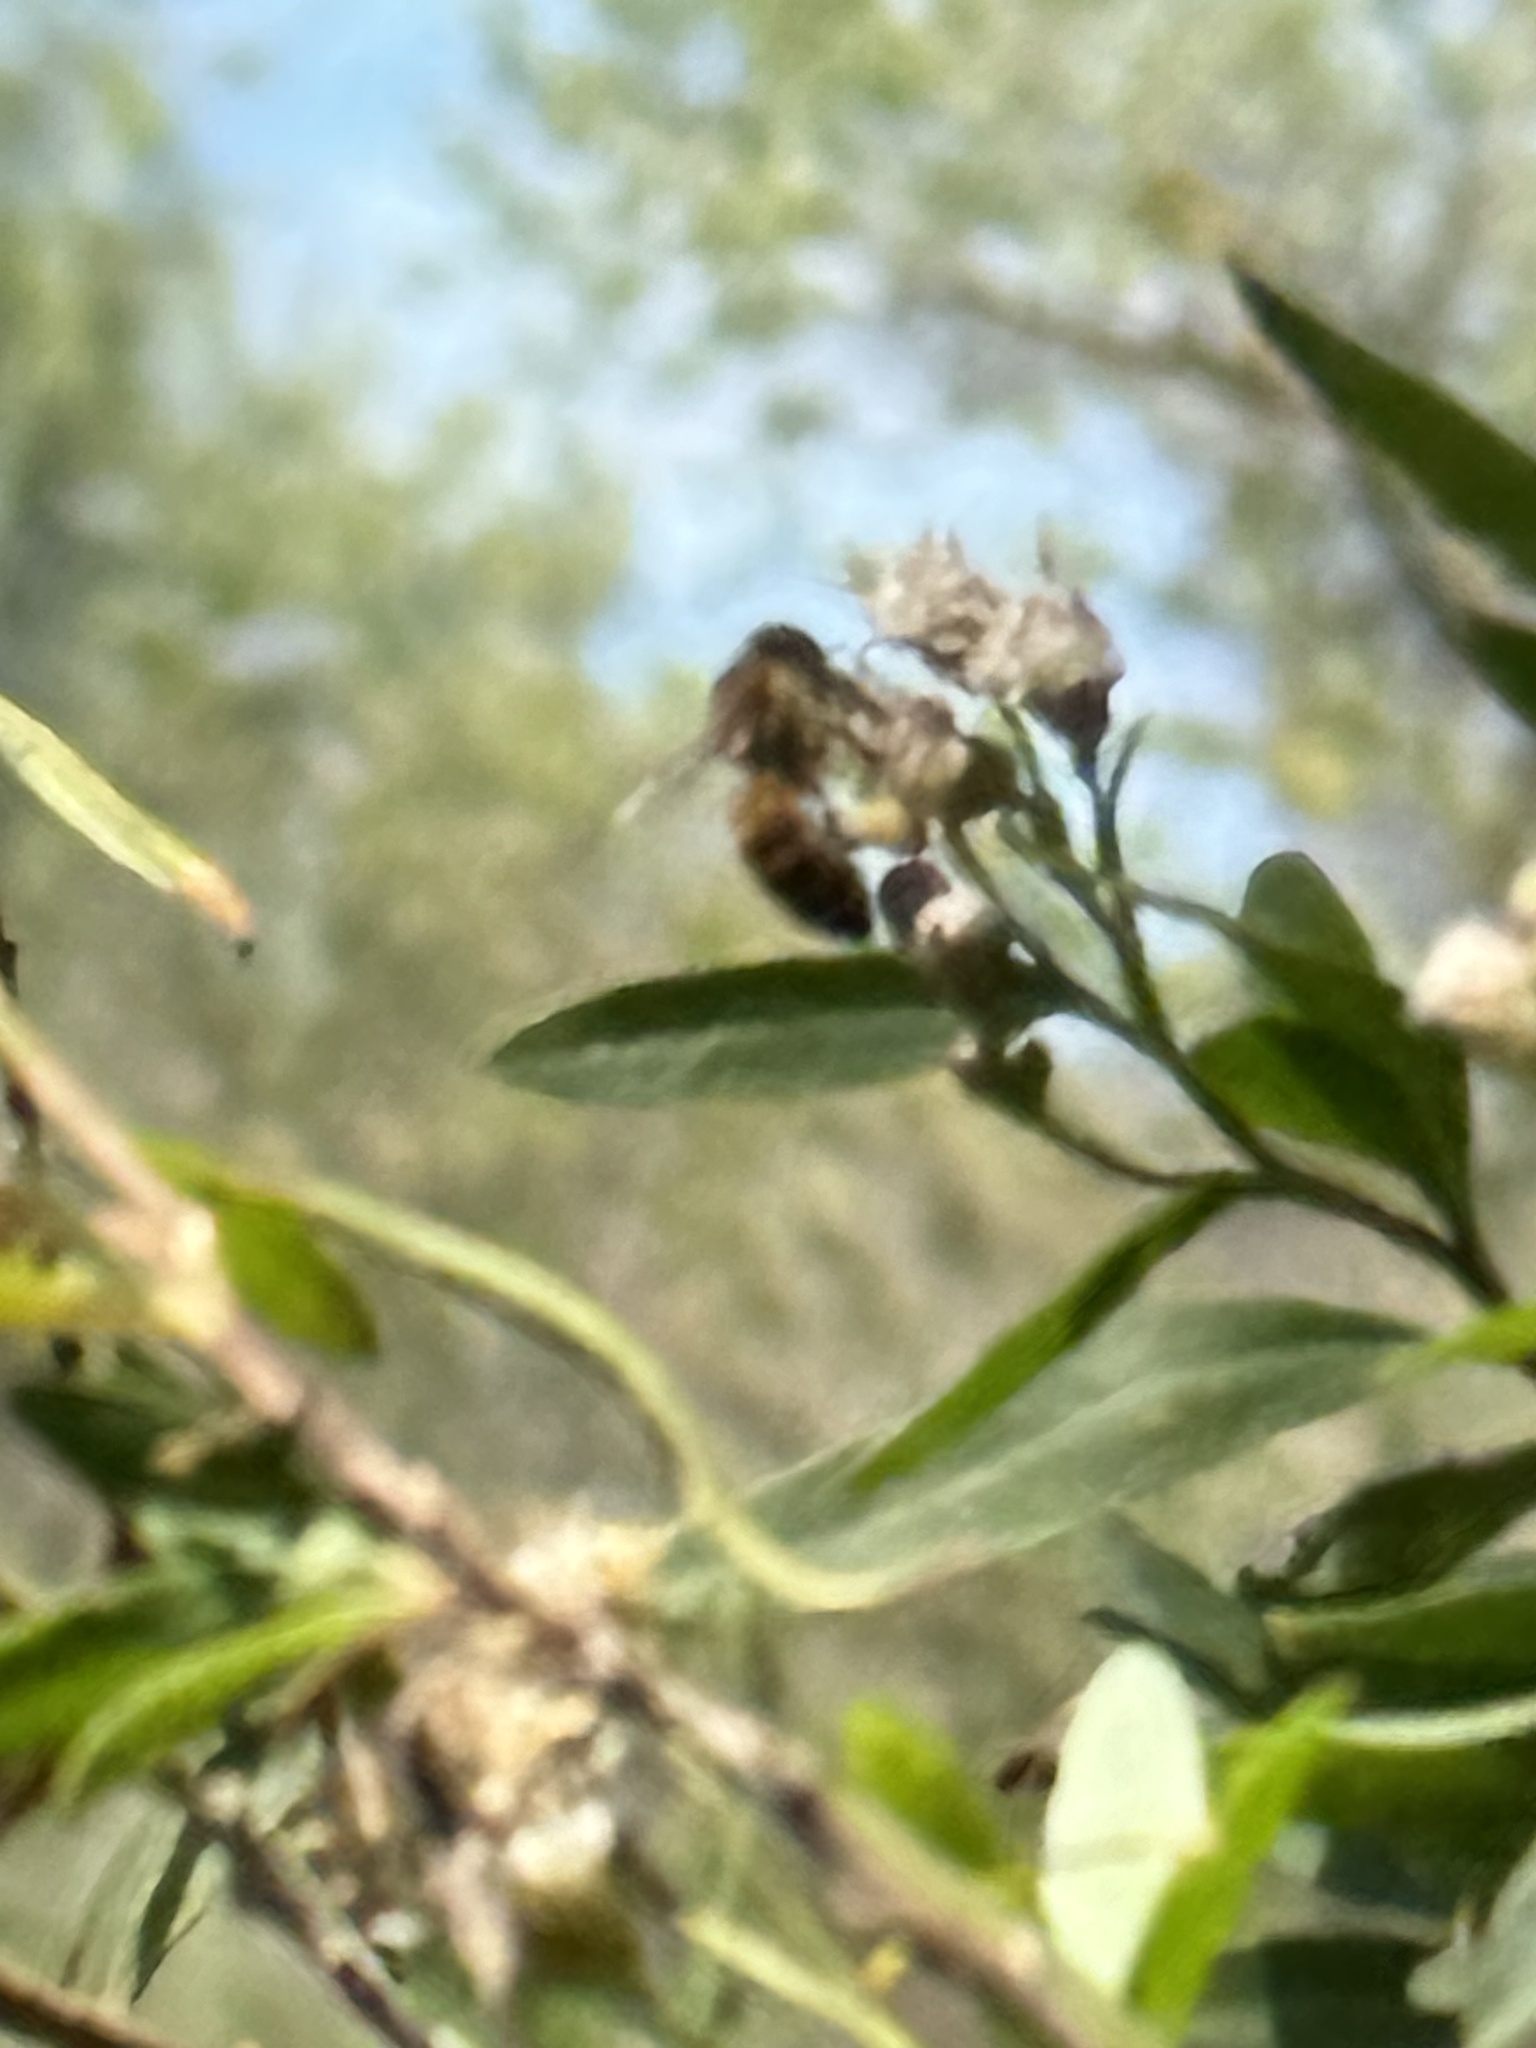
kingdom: Animalia
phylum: Arthropoda
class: Insecta
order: Hymenoptera
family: Apidae
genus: Apis
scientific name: Apis mellifera
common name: Honey bee
